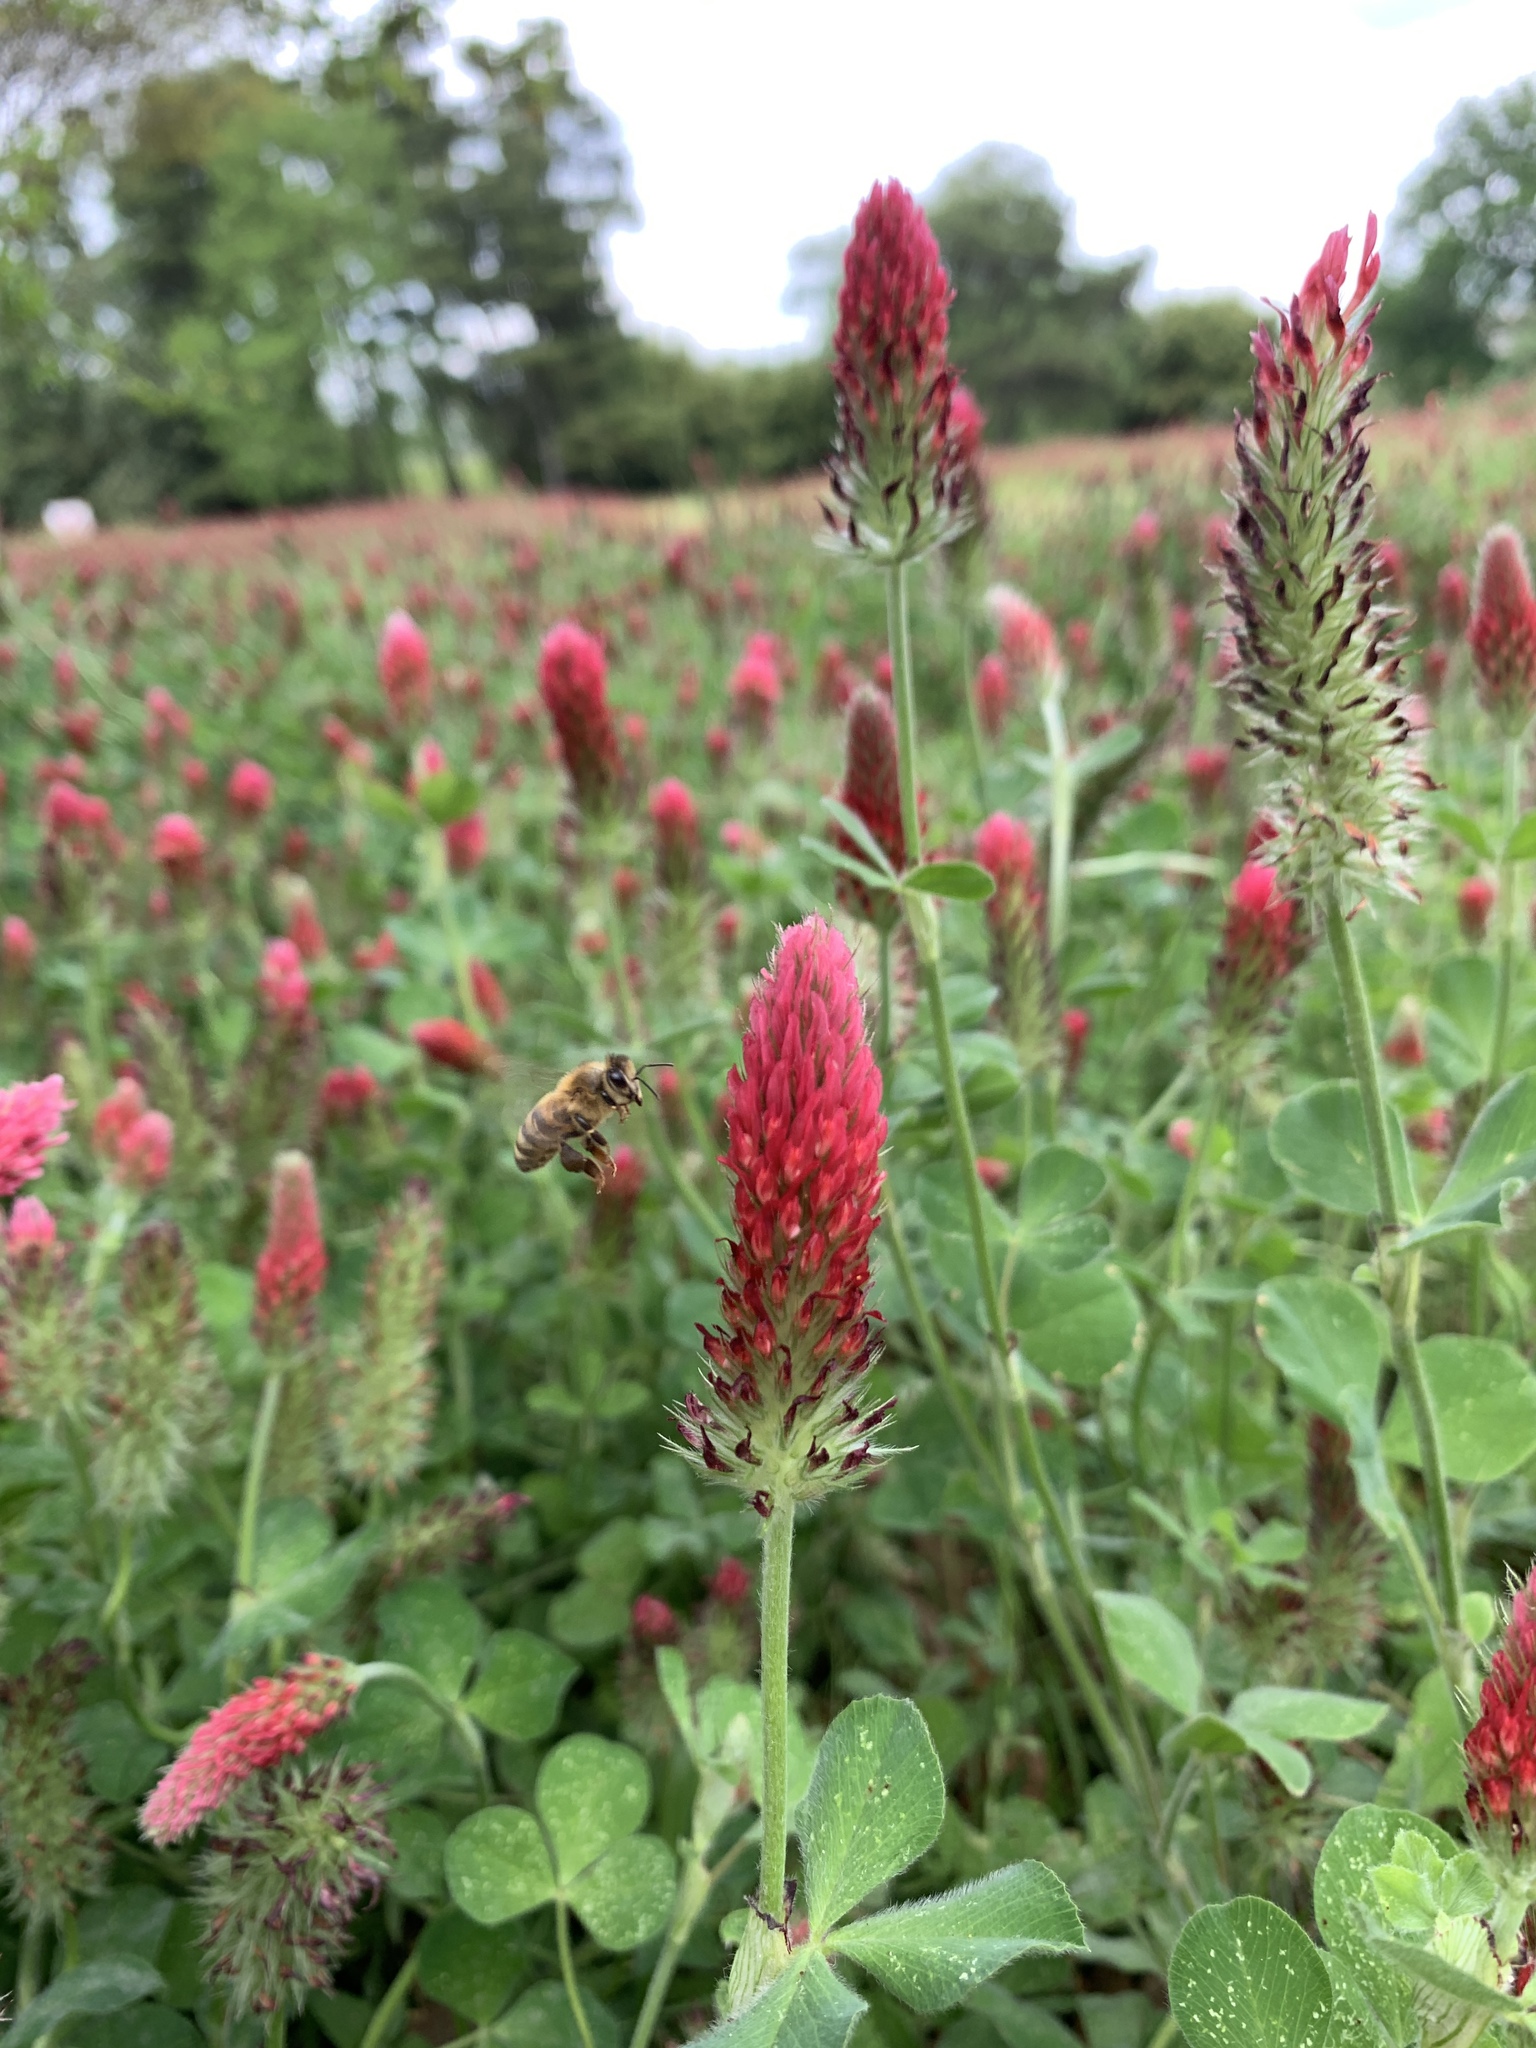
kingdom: Plantae
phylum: Tracheophyta
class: Magnoliopsida
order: Fabales
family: Fabaceae
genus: Trifolium
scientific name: Trifolium incarnatum
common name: Crimson clover
